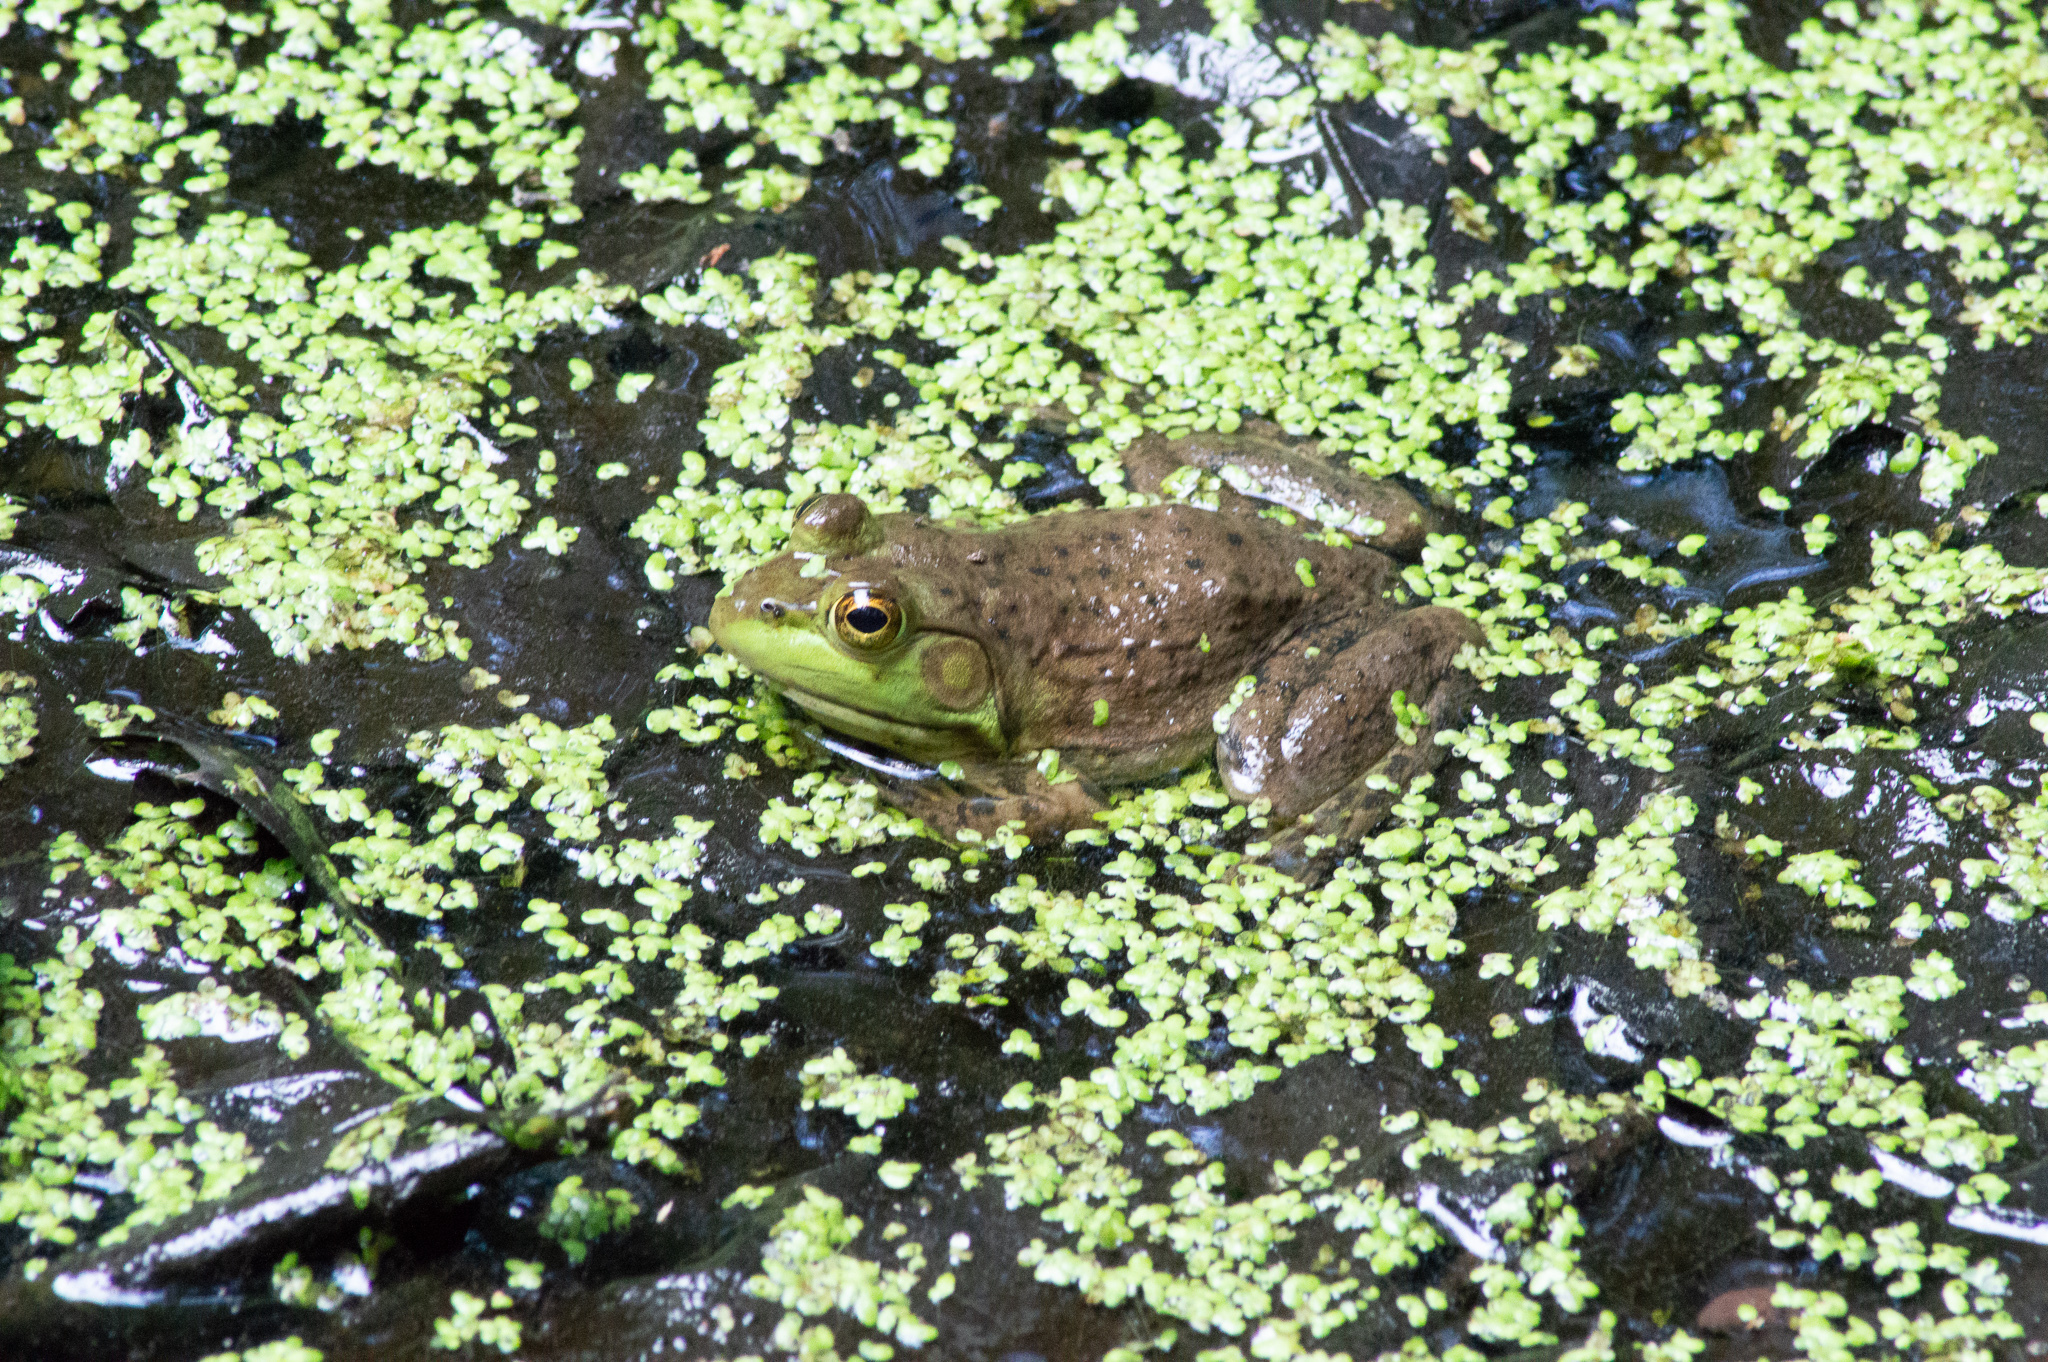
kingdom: Animalia
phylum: Chordata
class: Amphibia
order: Anura
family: Ranidae
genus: Lithobates
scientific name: Lithobates catesbeianus
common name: American bullfrog
